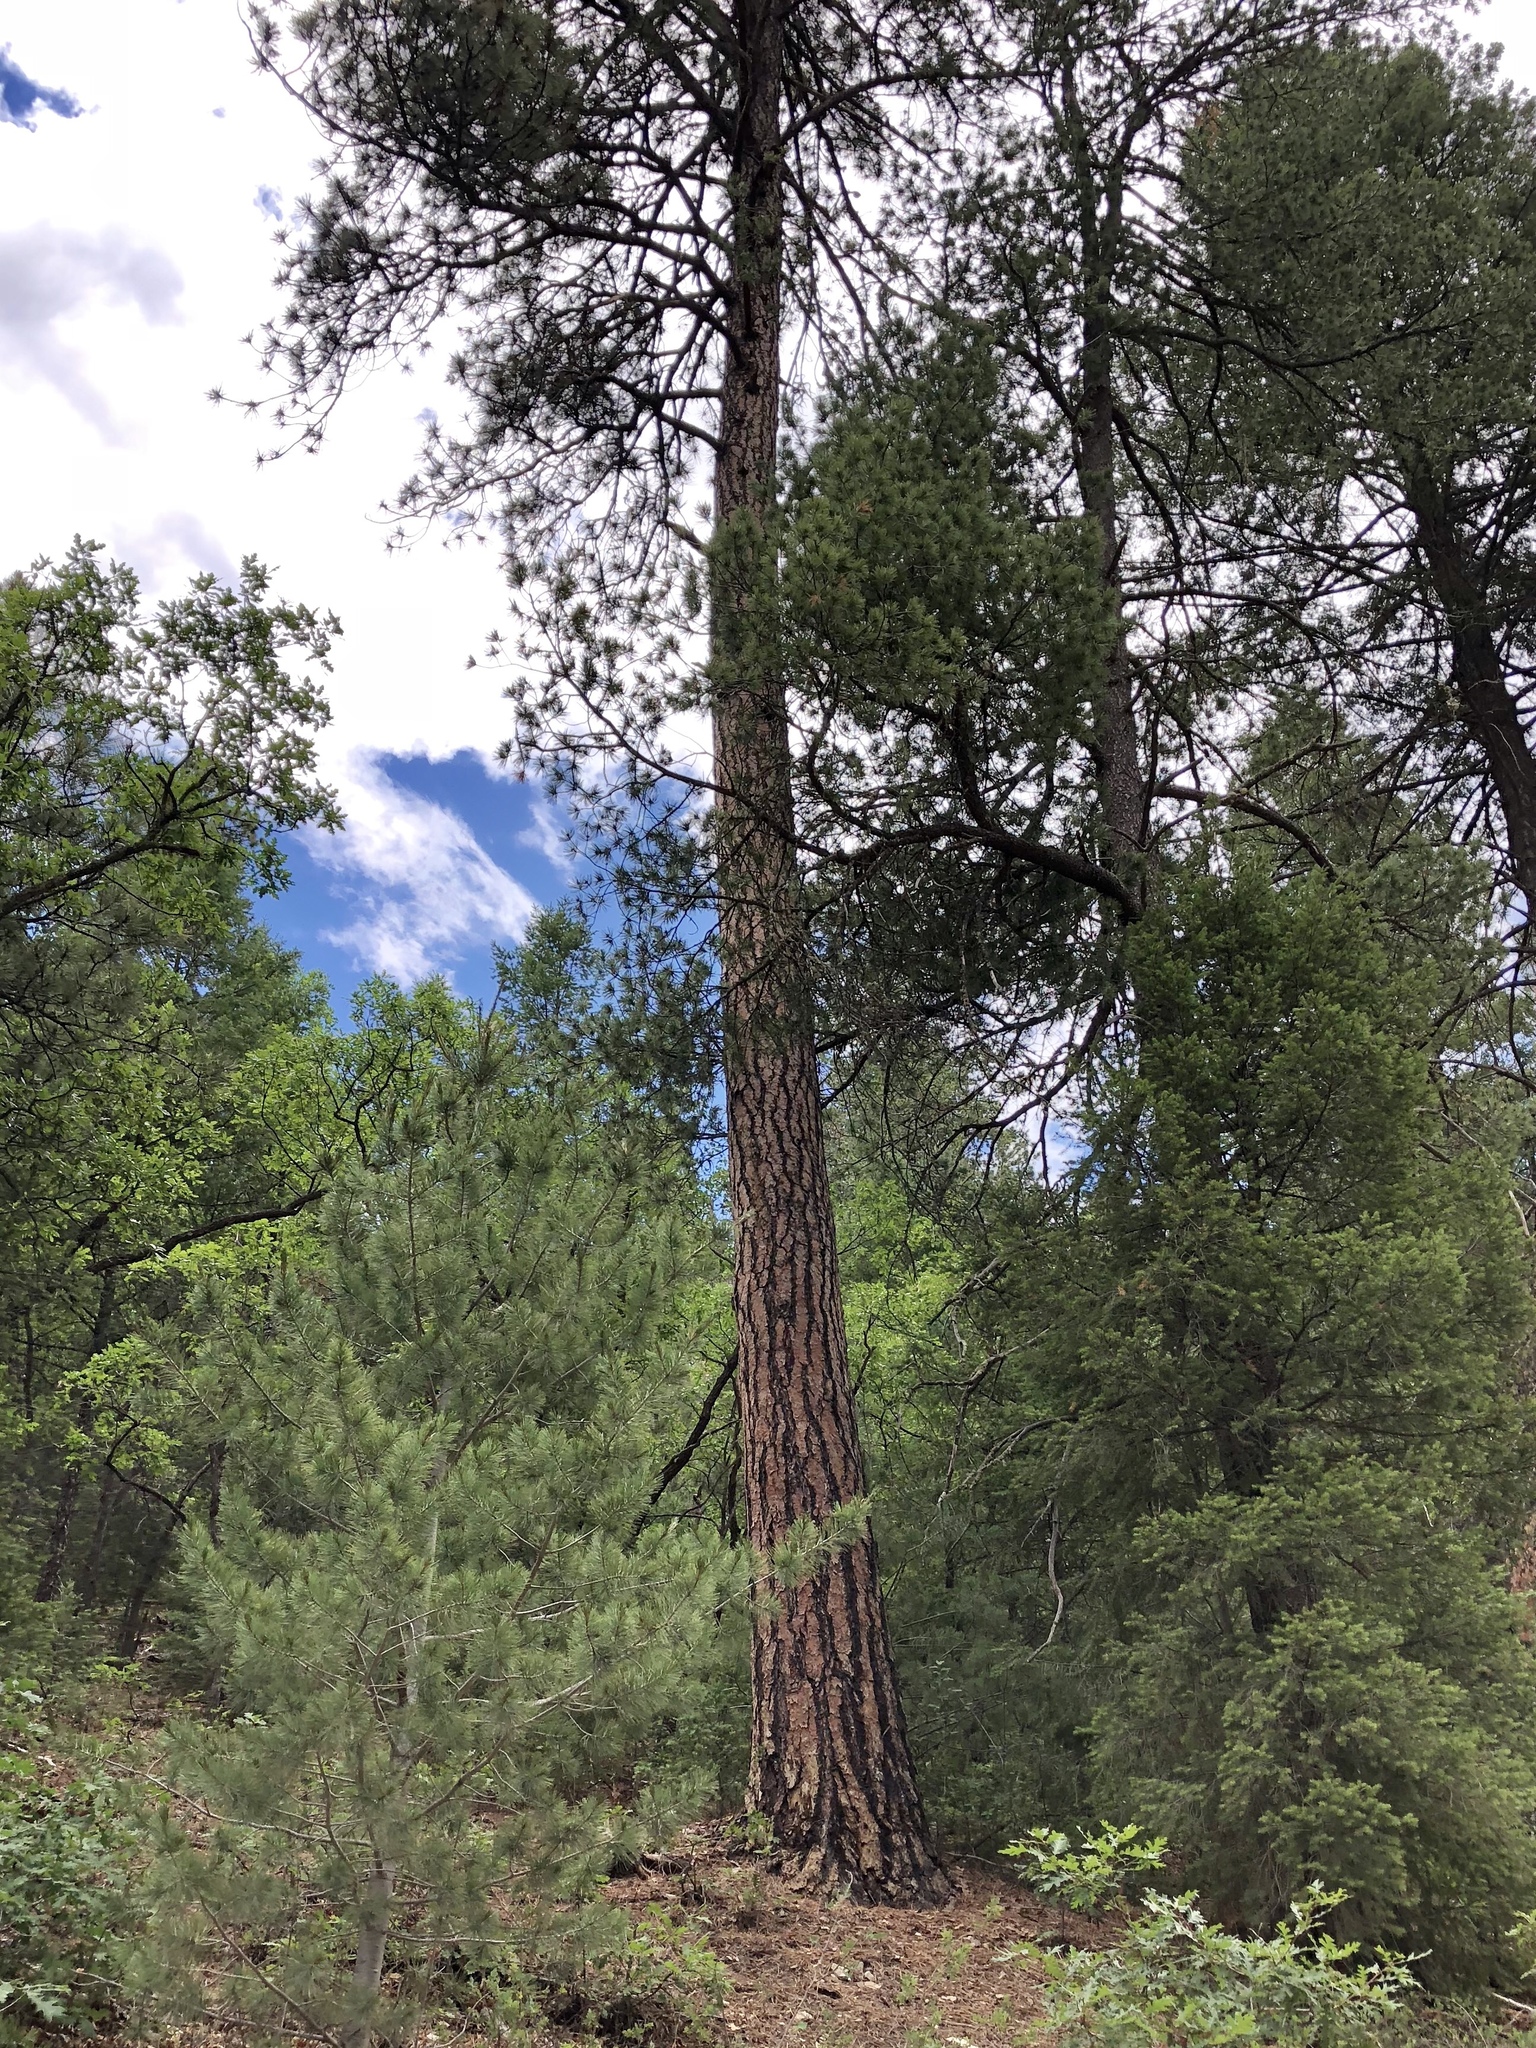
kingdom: Plantae
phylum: Tracheophyta
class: Pinopsida
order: Pinales
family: Pinaceae
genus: Pinus
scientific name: Pinus ponderosa
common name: Western yellow-pine
